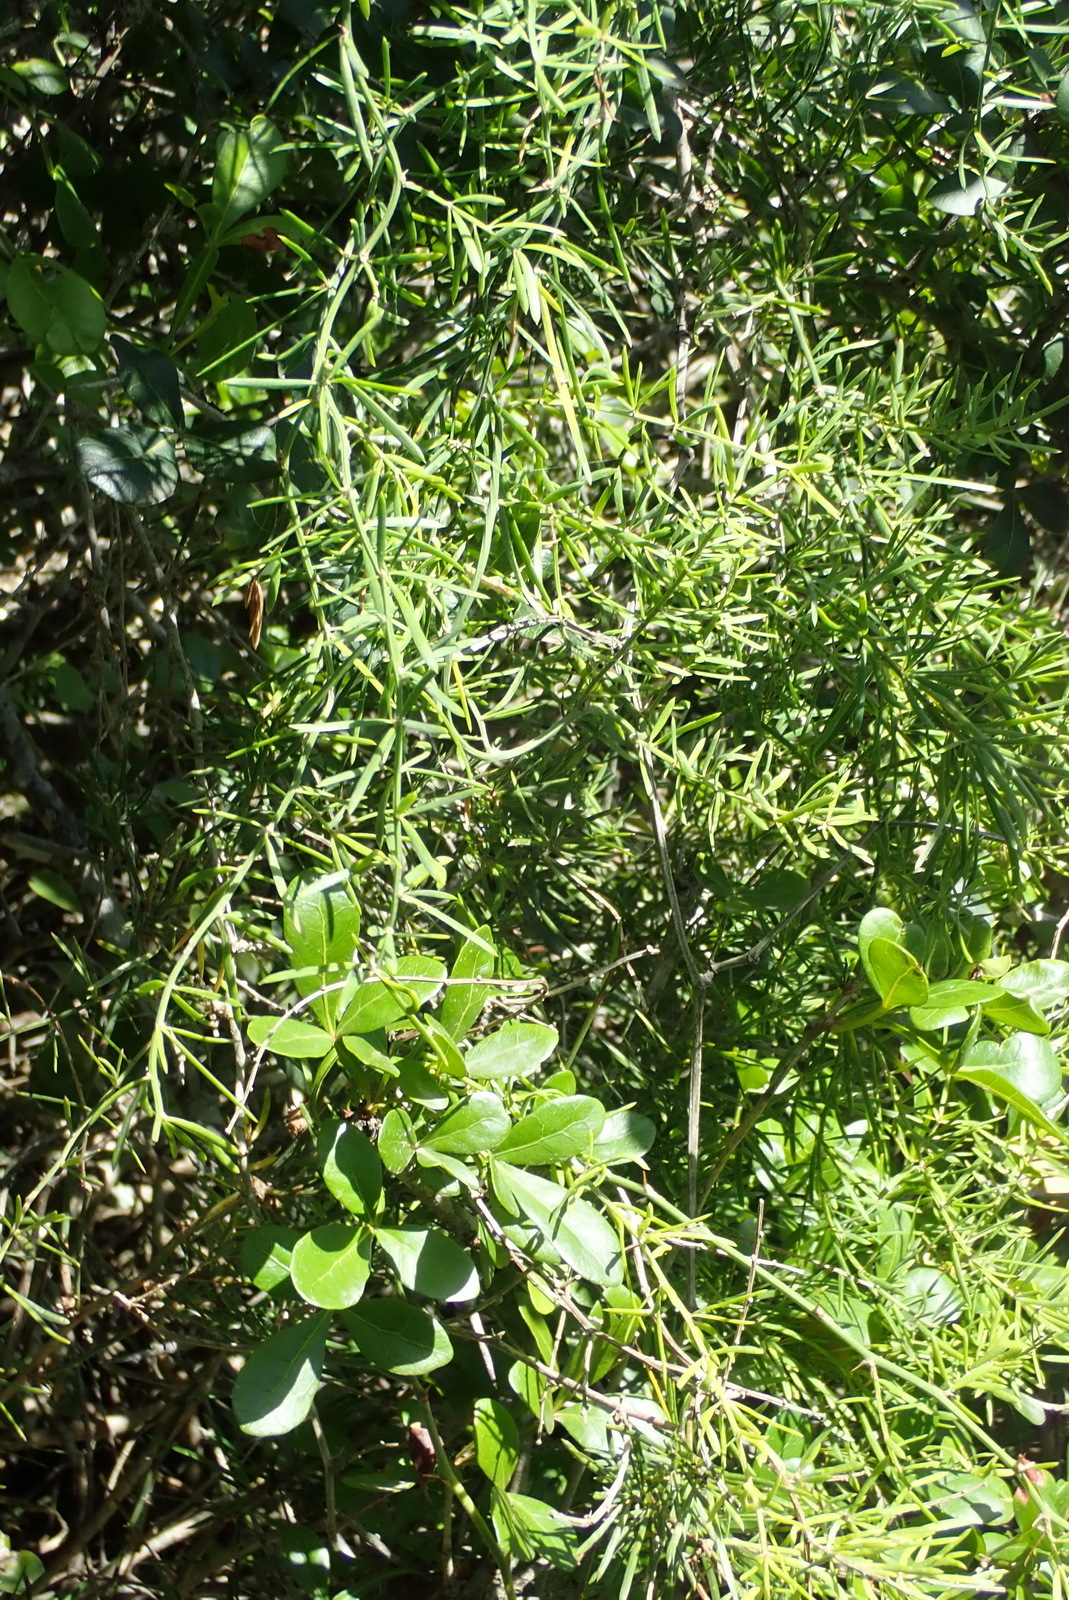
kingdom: Plantae
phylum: Tracheophyta
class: Liliopsida
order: Asparagales
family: Asparagaceae
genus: Asparagus
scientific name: Asparagus aethiopicus
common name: Sprenger's asparagus fern
